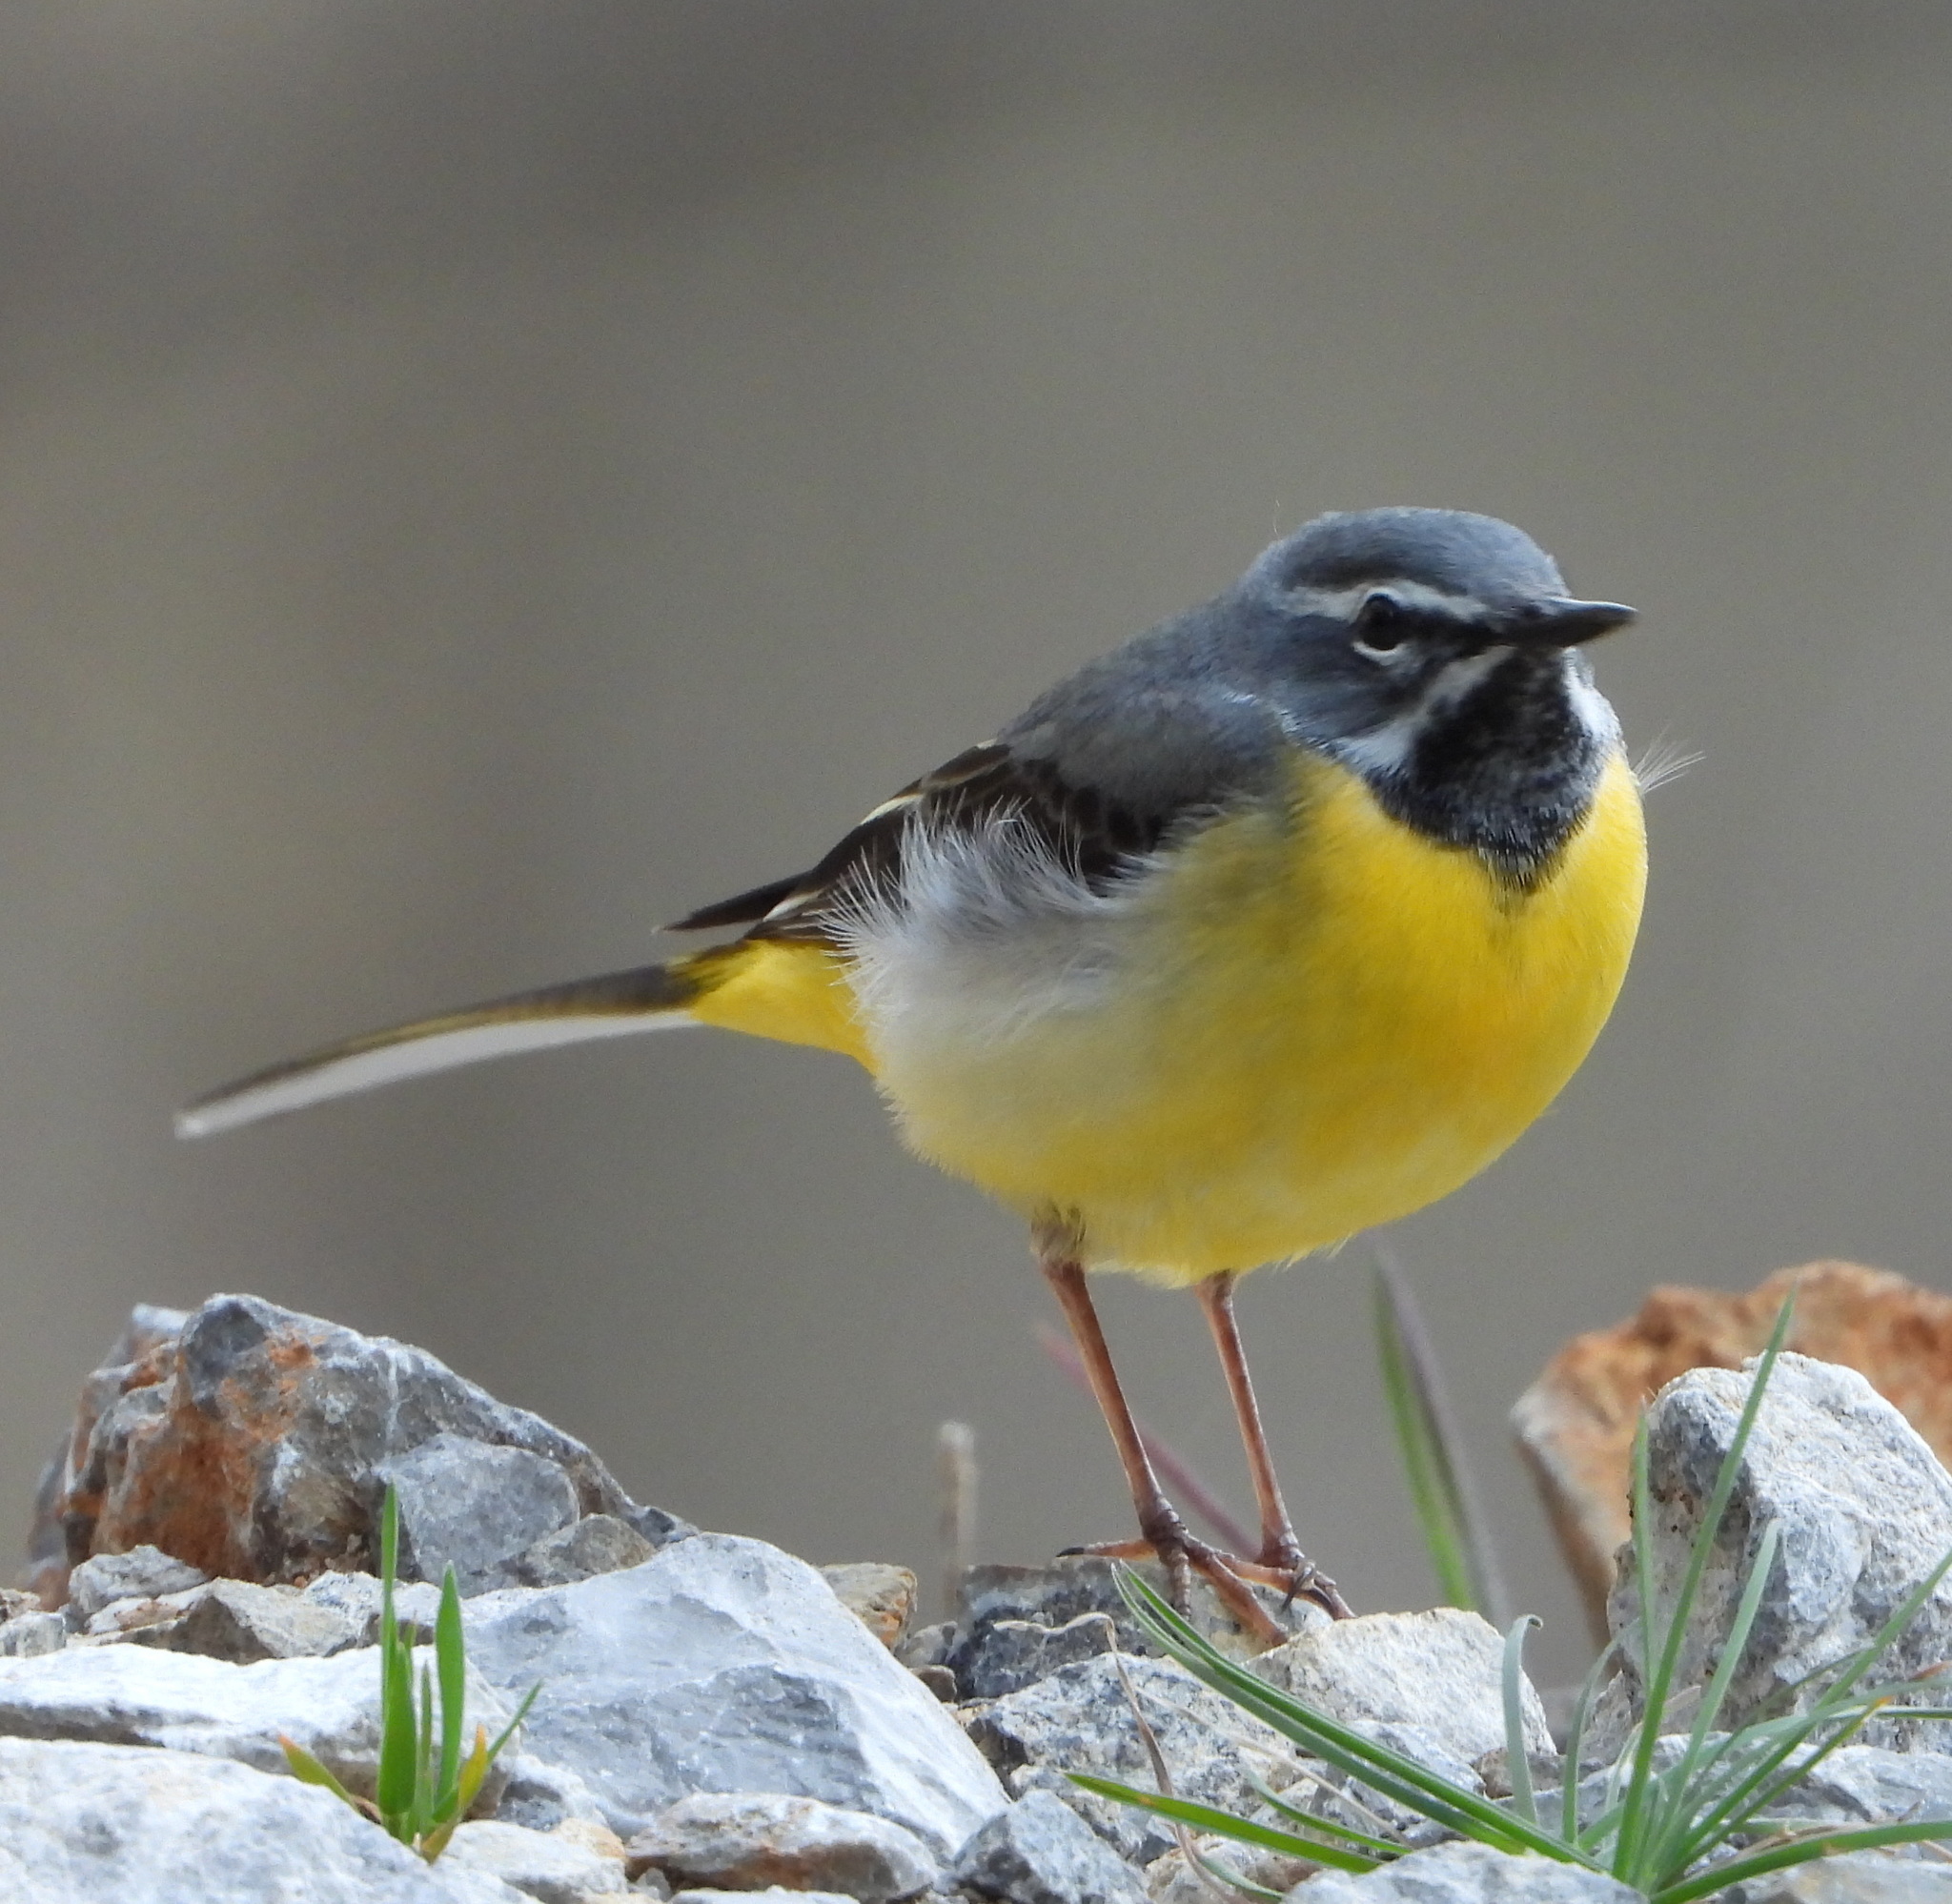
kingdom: Animalia
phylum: Chordata
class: Aves
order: Passeriformes
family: Motacillidae
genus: Motacilla
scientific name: Motacilla cinerea
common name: Grey wagtail
